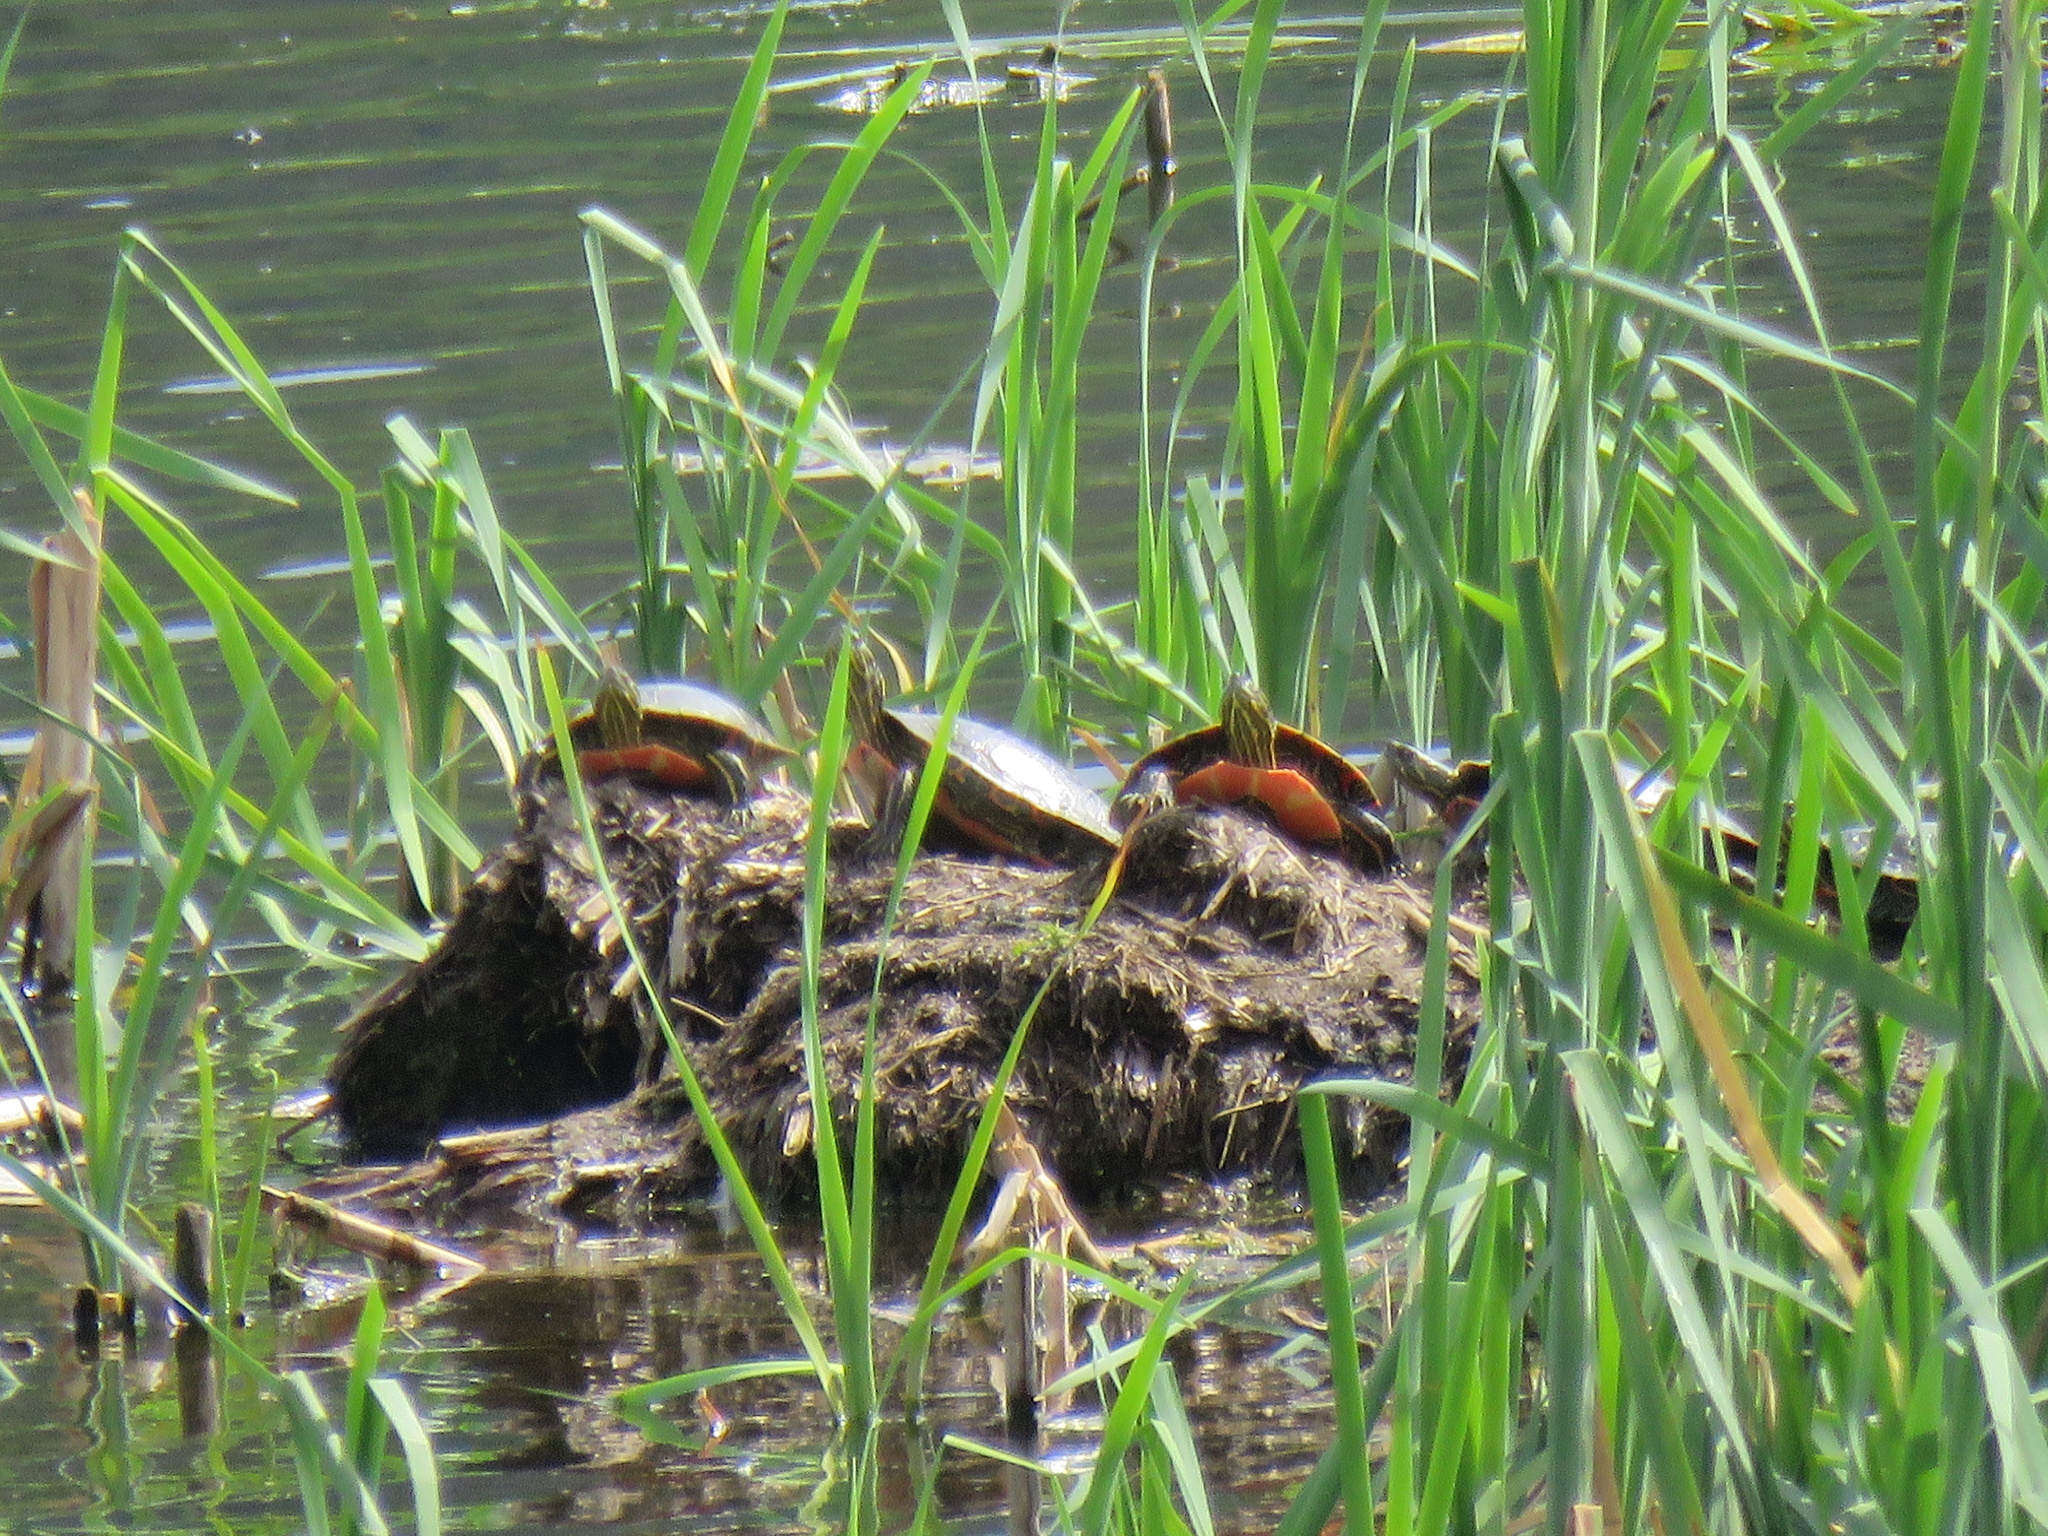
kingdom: Animalia
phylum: Chordata
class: Testudines
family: Emydidae
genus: Chrysemys
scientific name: Chrysemys picta
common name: Painted turtle
